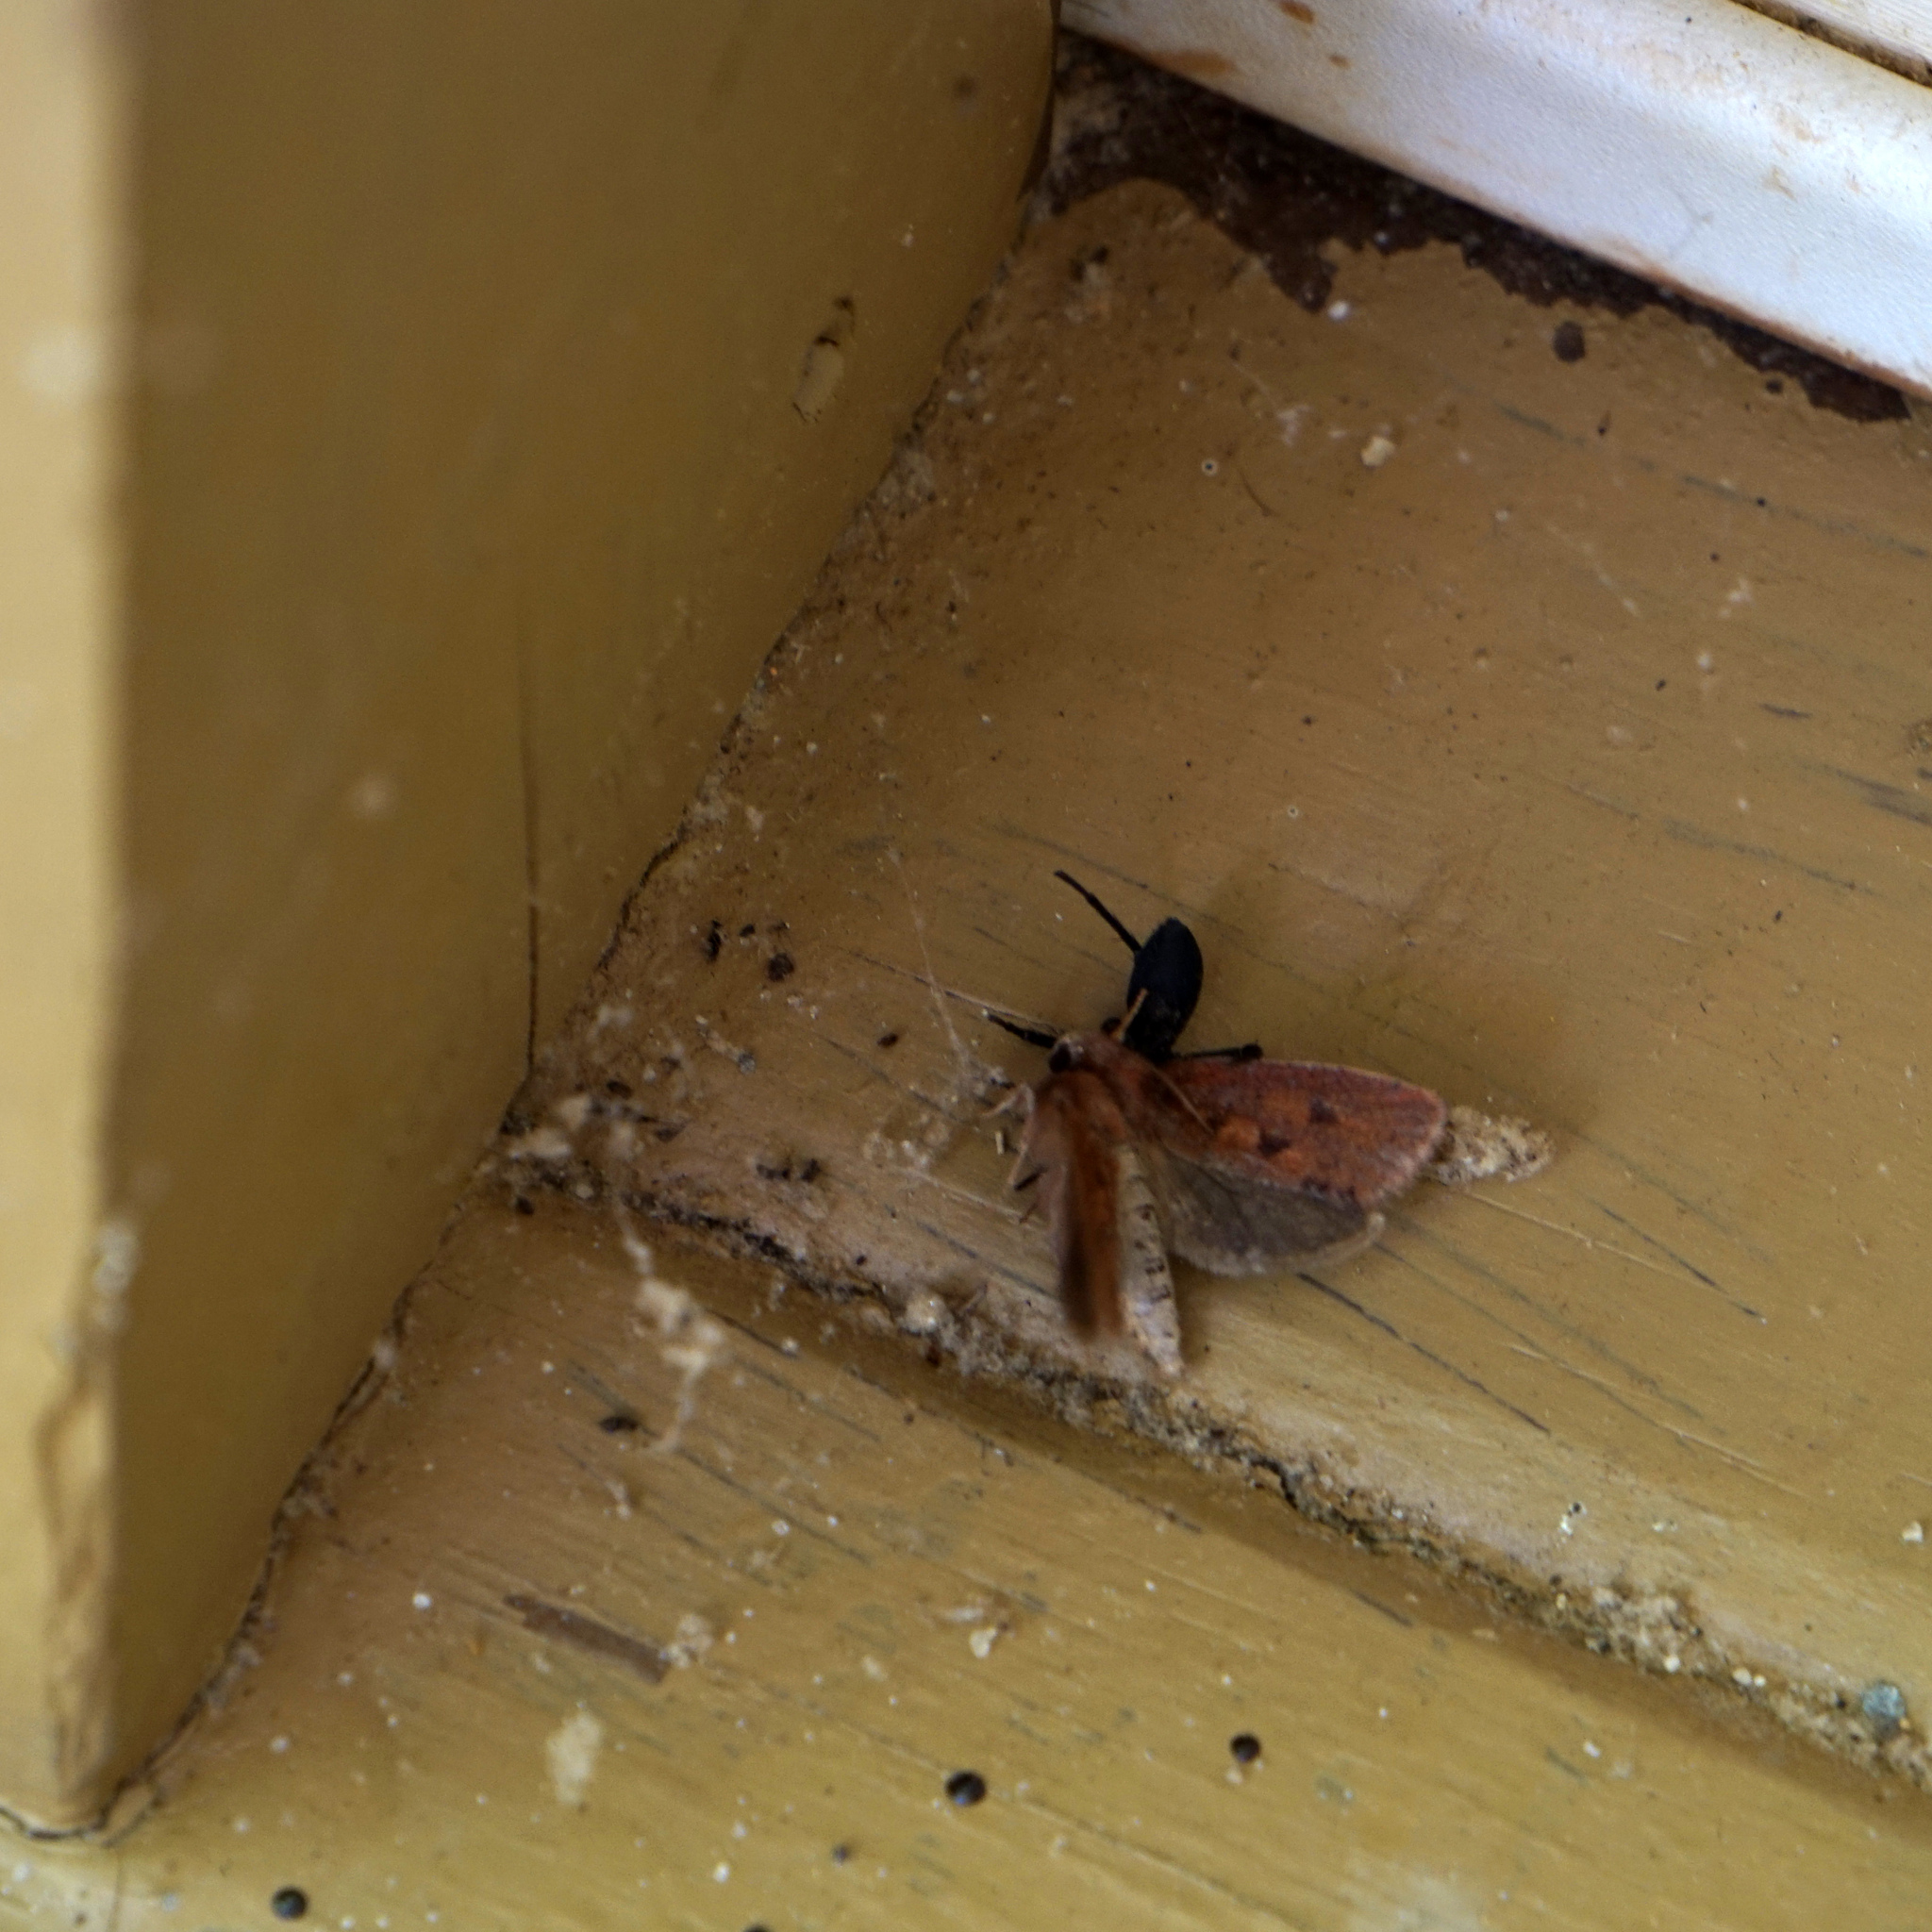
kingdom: Animalia
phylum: Arthropoda
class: Insecta
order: Lepidoptera
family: Tineidae
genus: Acrolophus
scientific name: Acrolophus plumifrontella
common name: Eastern grass tubeworm moth
